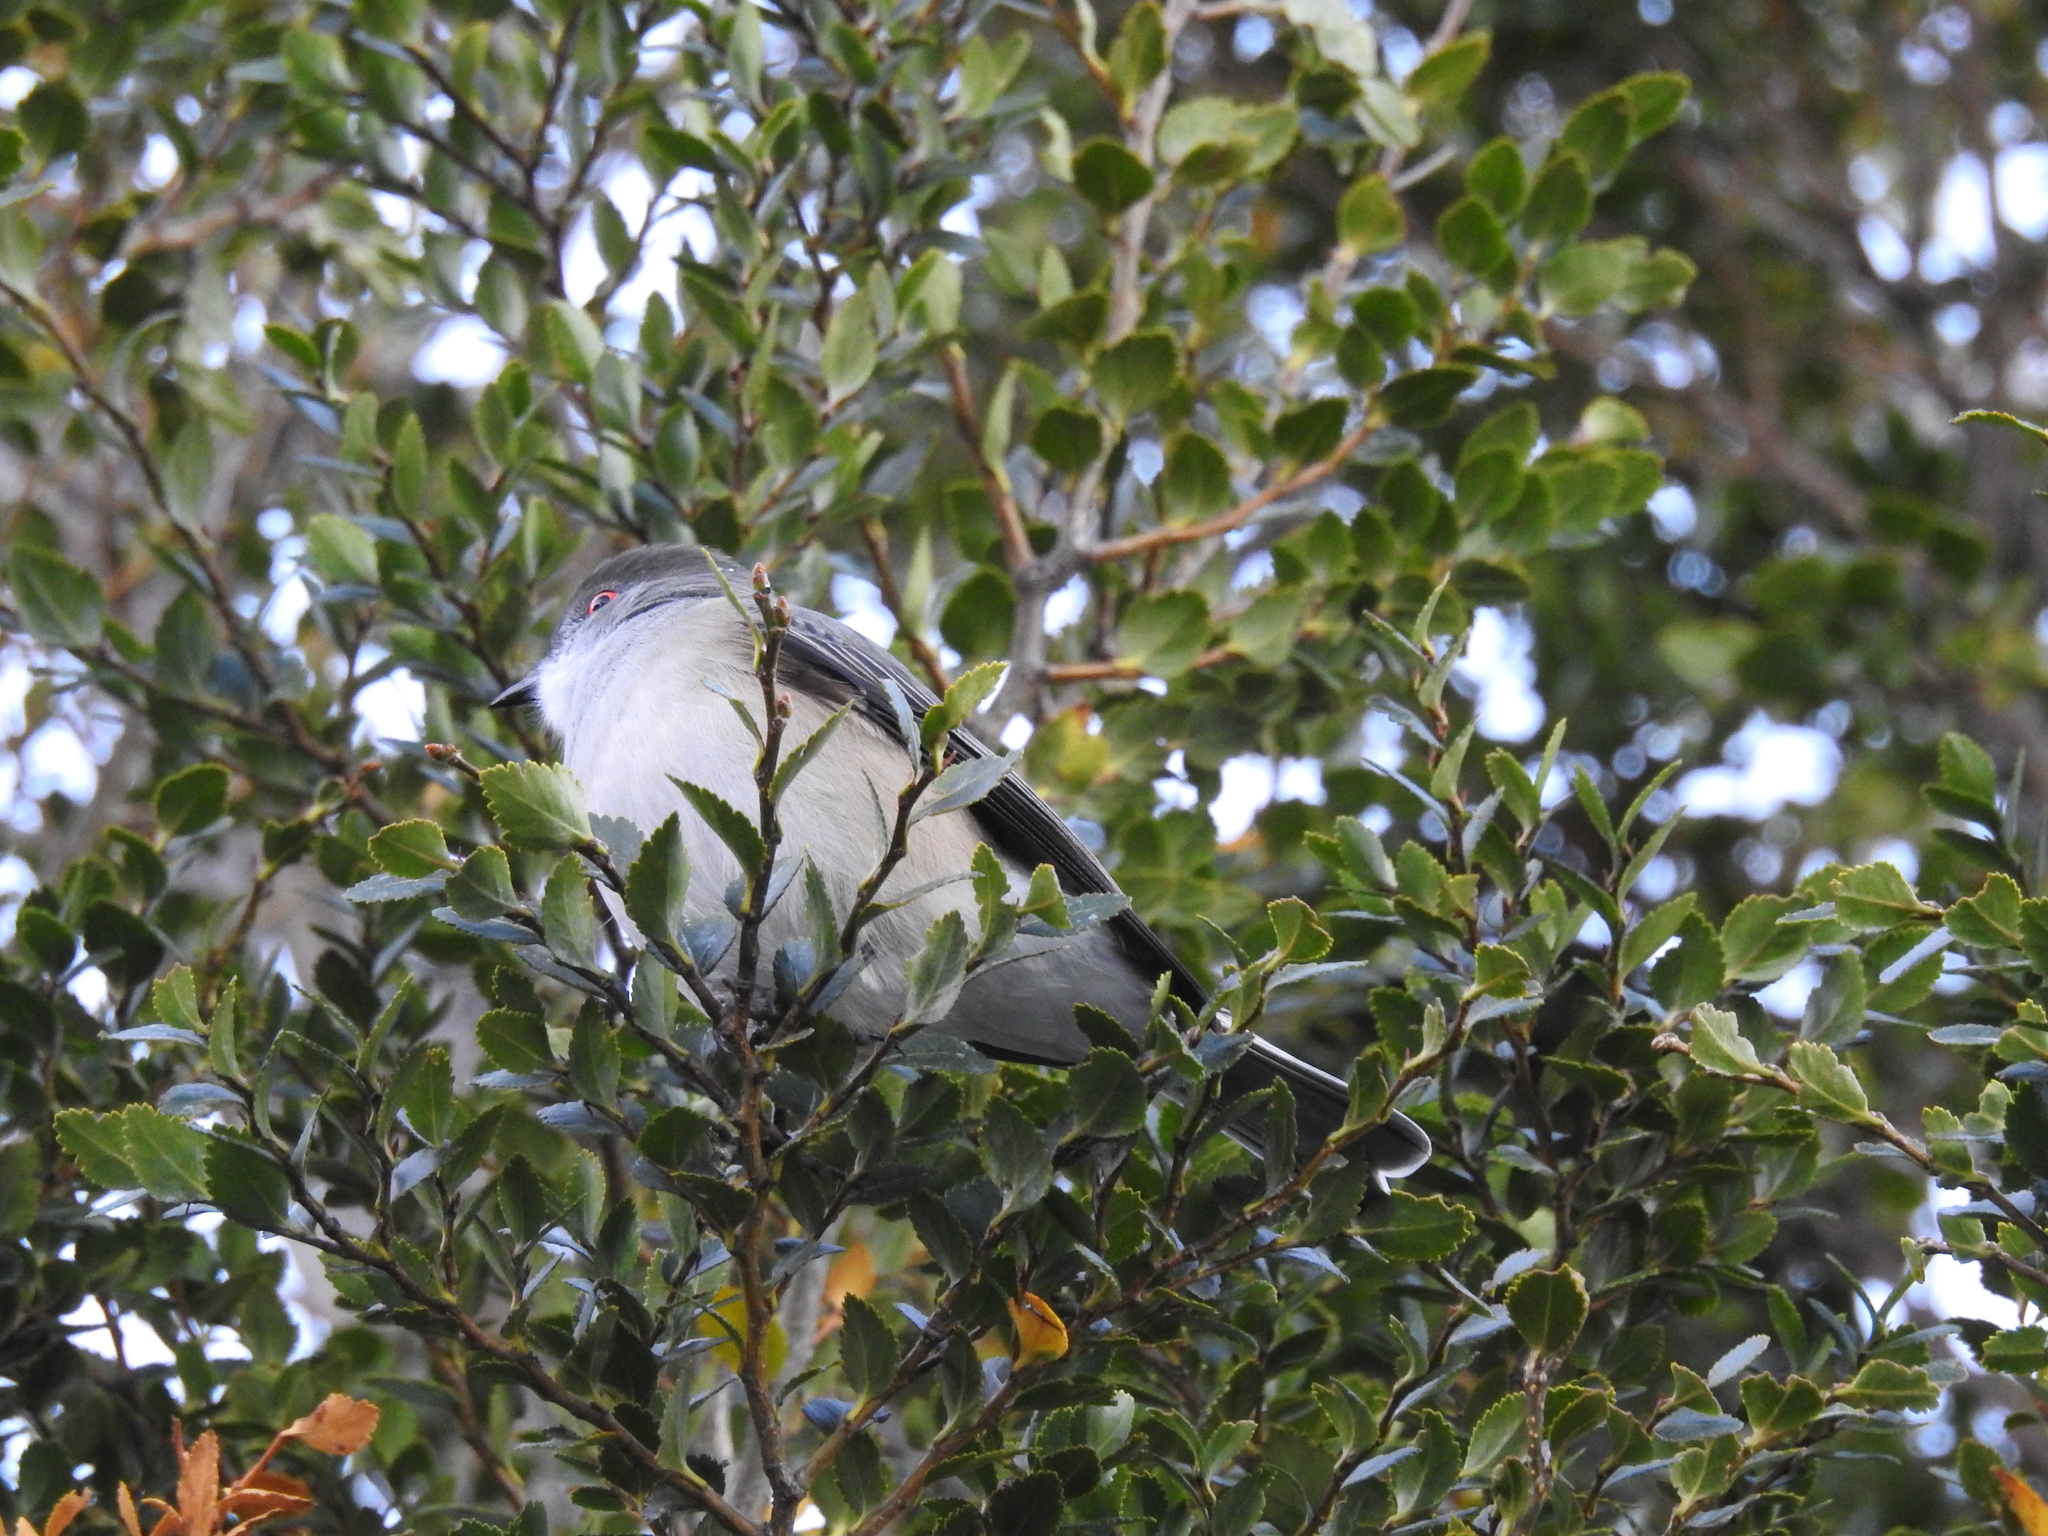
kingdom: Animalia
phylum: Chordata
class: Aves
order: Passeriformes
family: Tyrannidae
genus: Xolmis
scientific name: Xolmis pyrope
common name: Fire-eyed diucon
